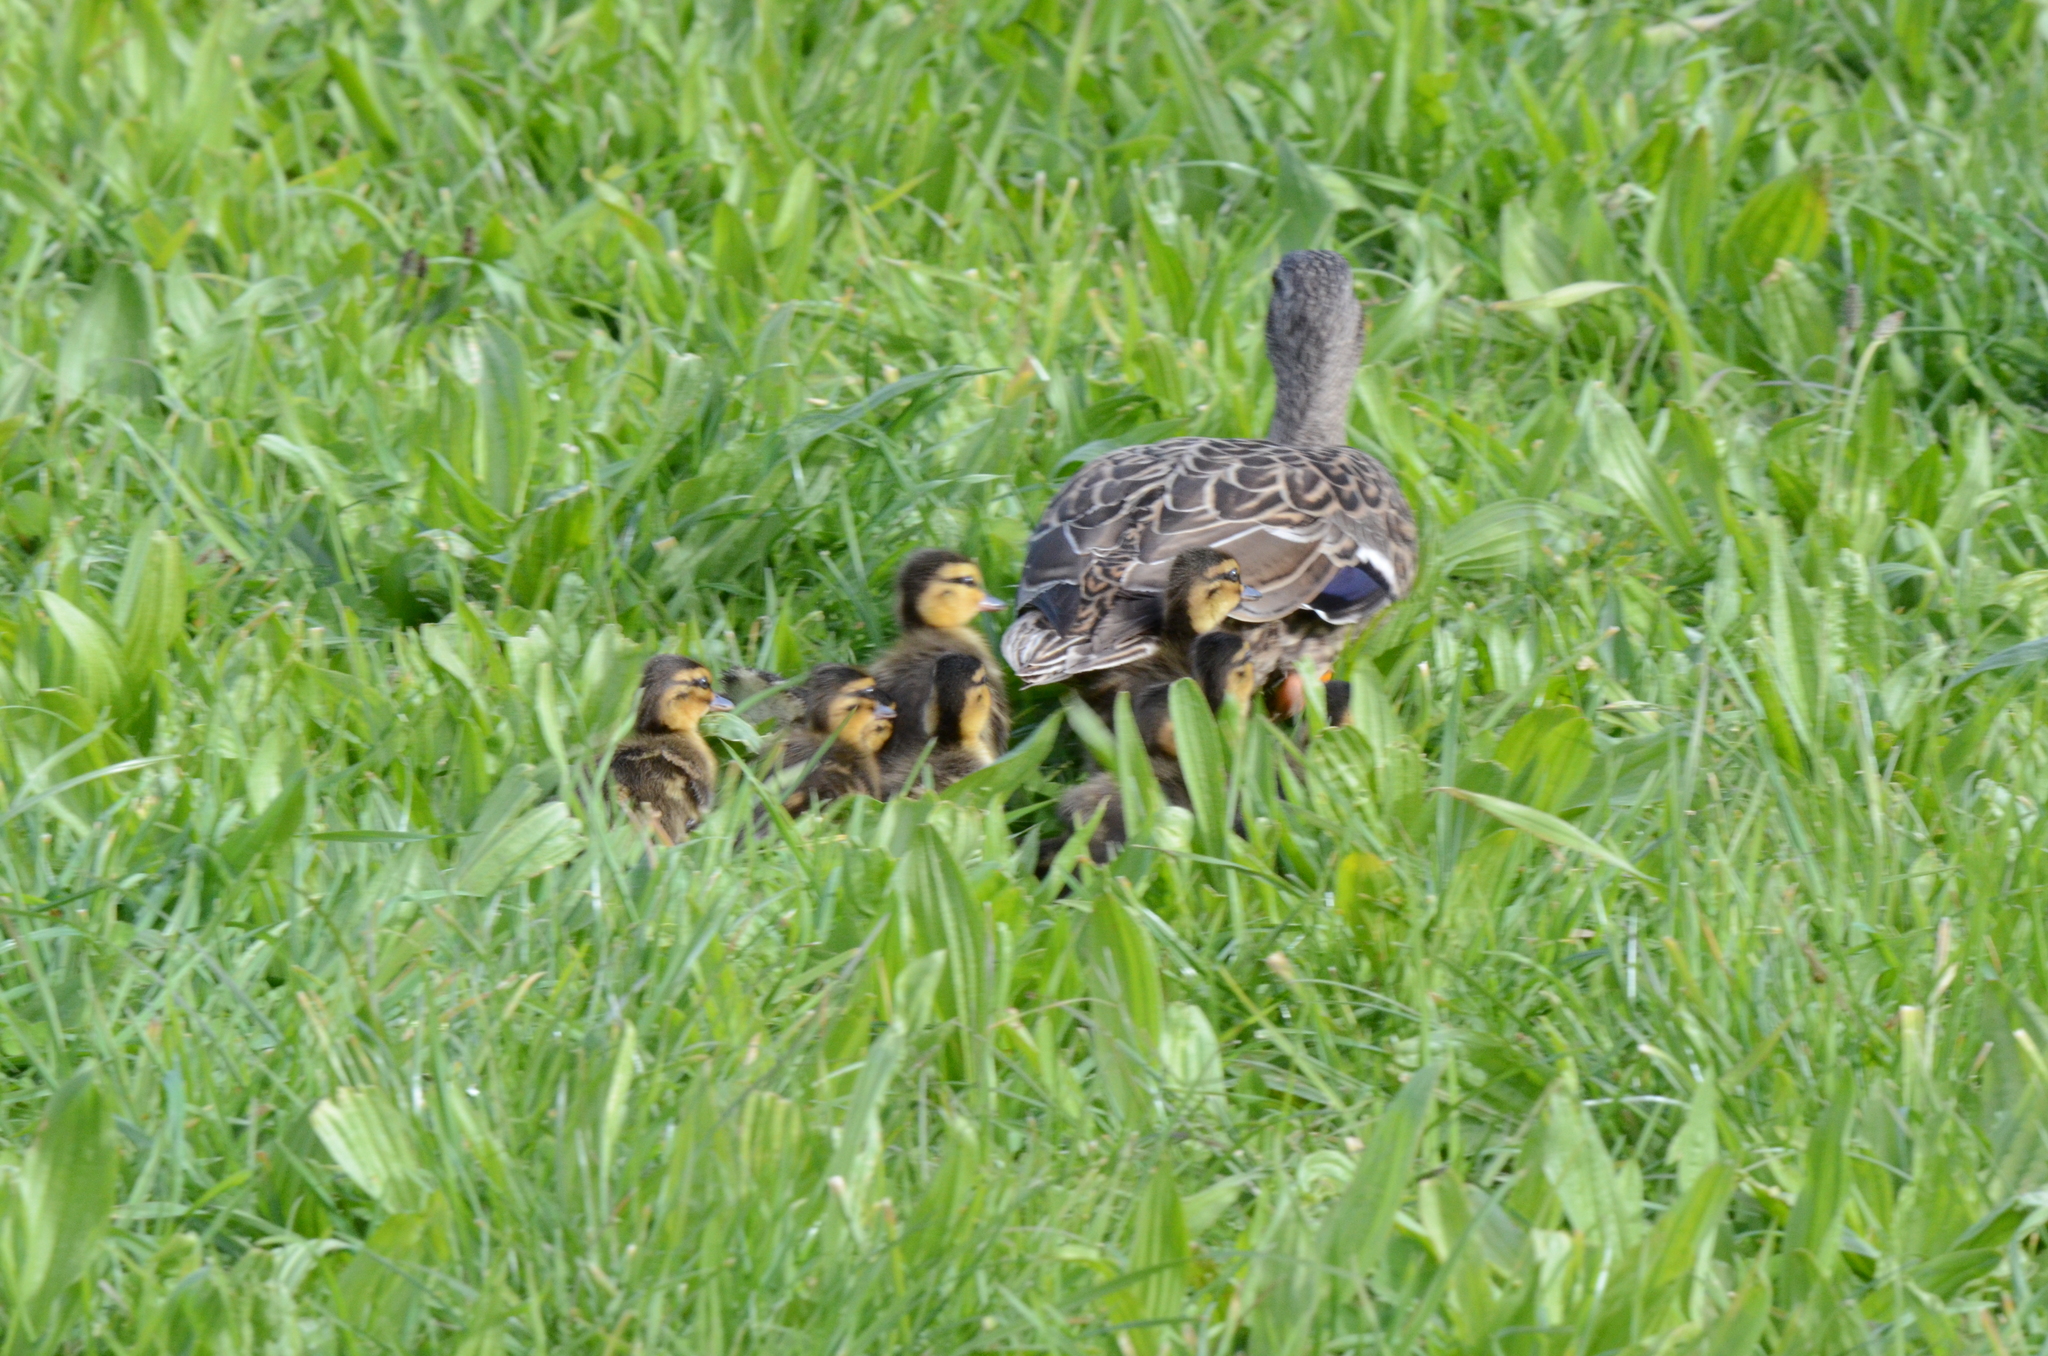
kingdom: Animalia
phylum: Chordata
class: Aves
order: Anseriformes
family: Anatidae
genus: Anas
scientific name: Anas platyrhynchos
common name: Mallard
